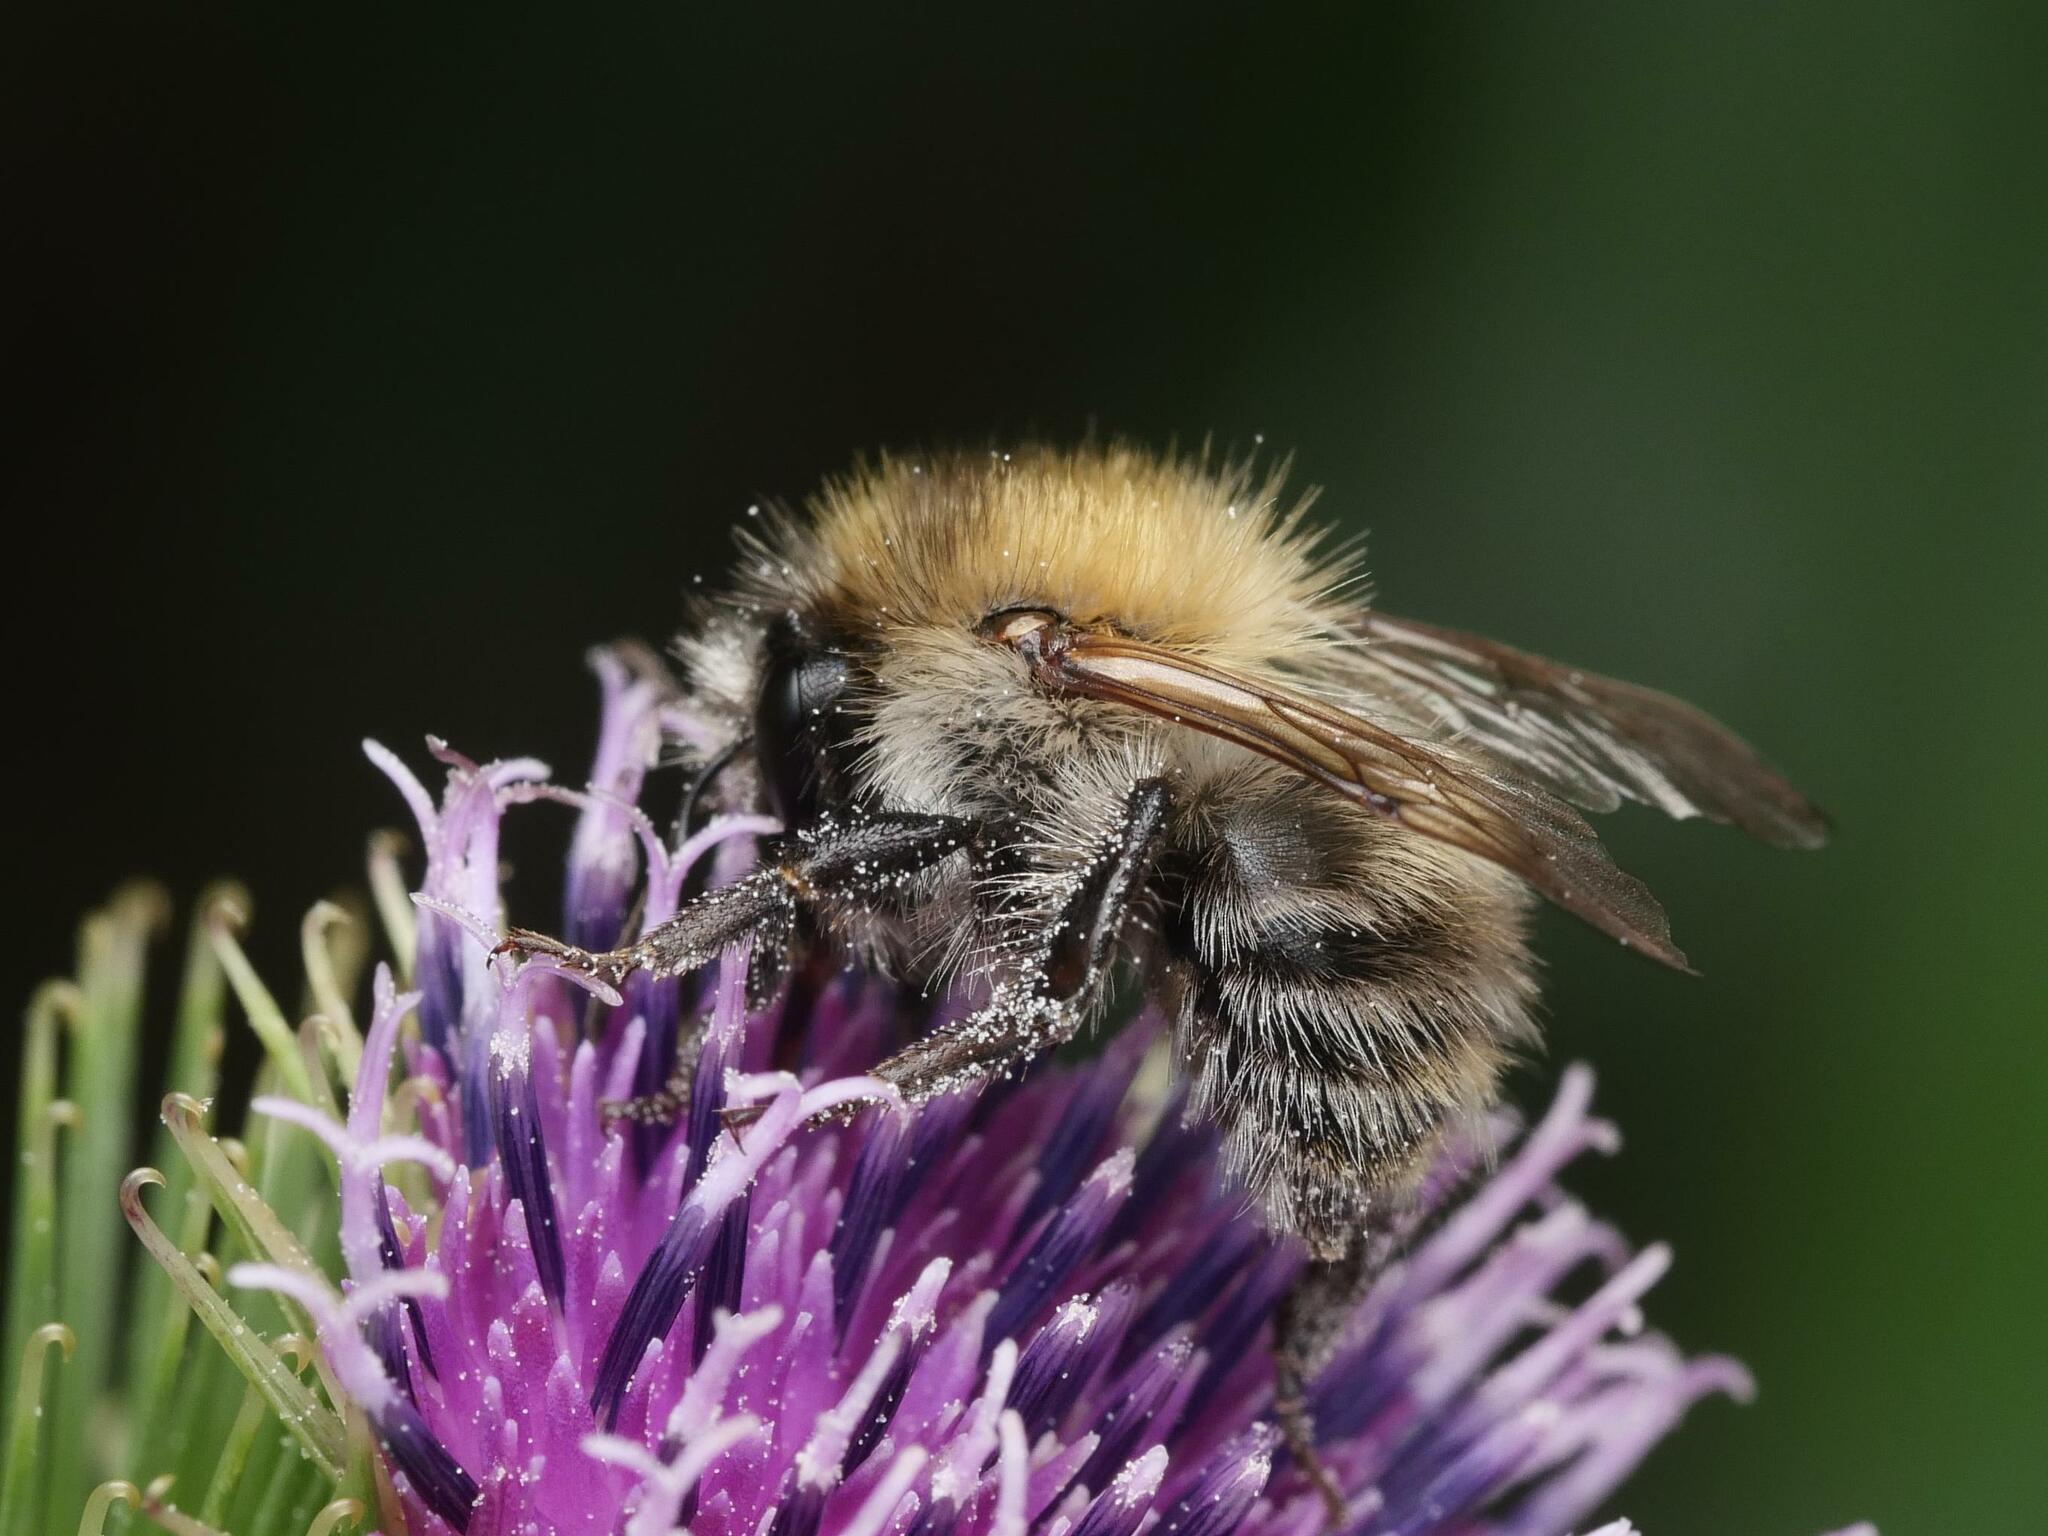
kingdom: Animalia
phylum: Arthropoda
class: Insecta
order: Hymenoptera
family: Apidae
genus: Bombus
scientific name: Bombus pascuorum
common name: Common carder bee
